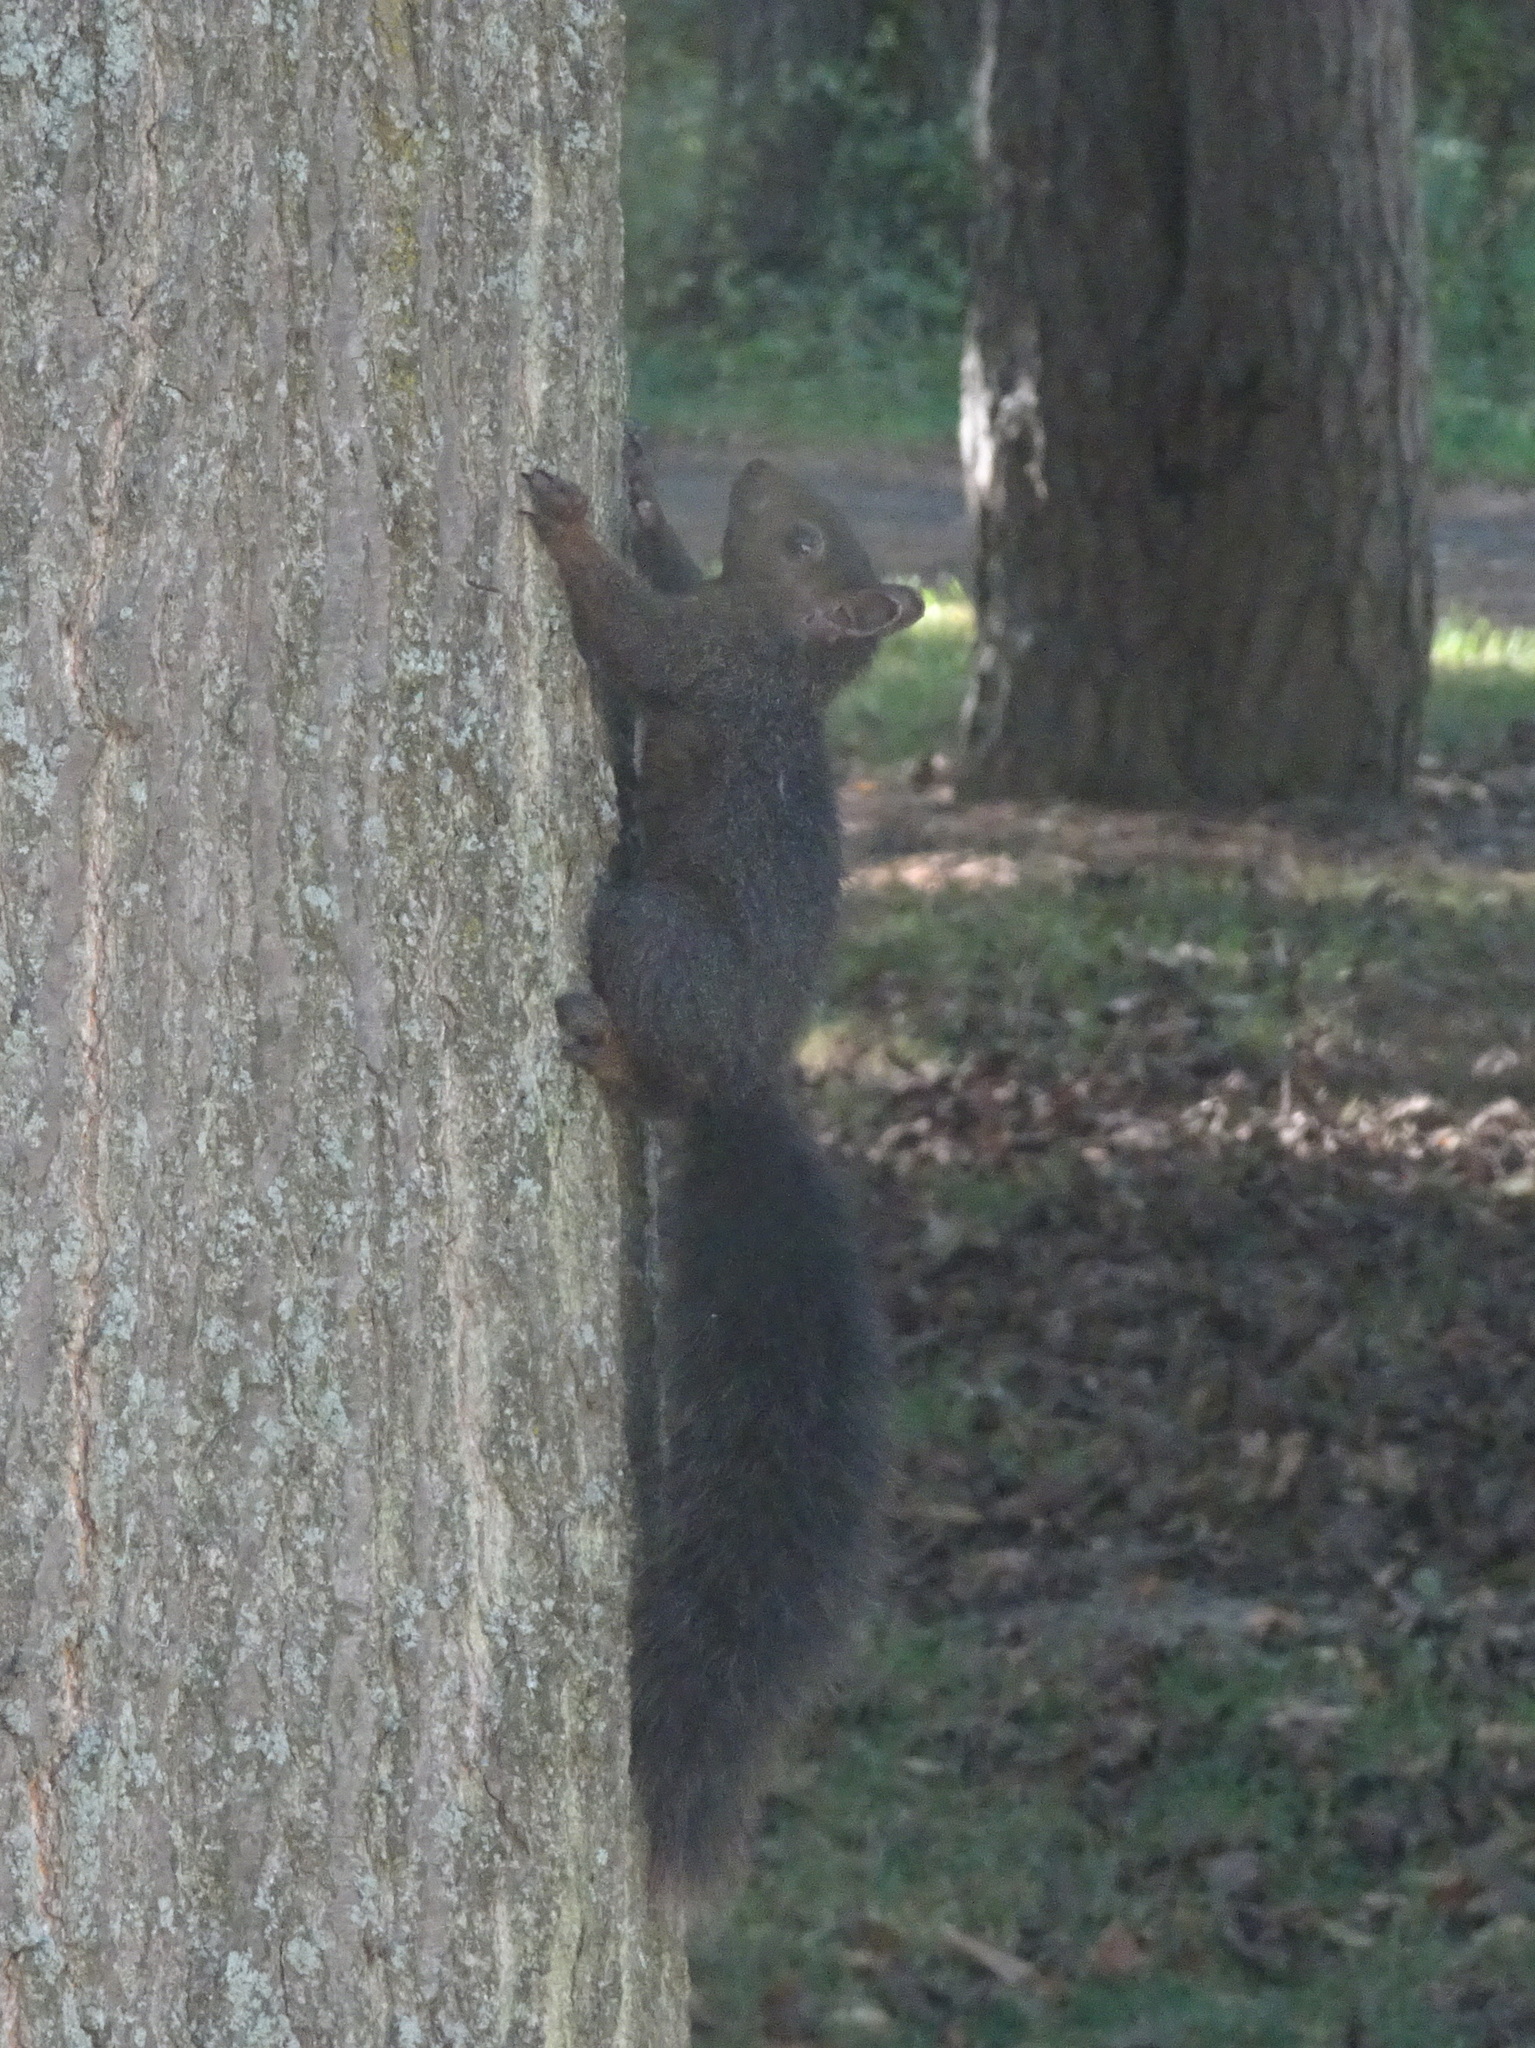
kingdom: Animalia
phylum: Chordata
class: Mammalia
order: Rodentia
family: Sciuridae
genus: Sciurus
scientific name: Sciurus carolinensis
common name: Eastern gray squirrel
